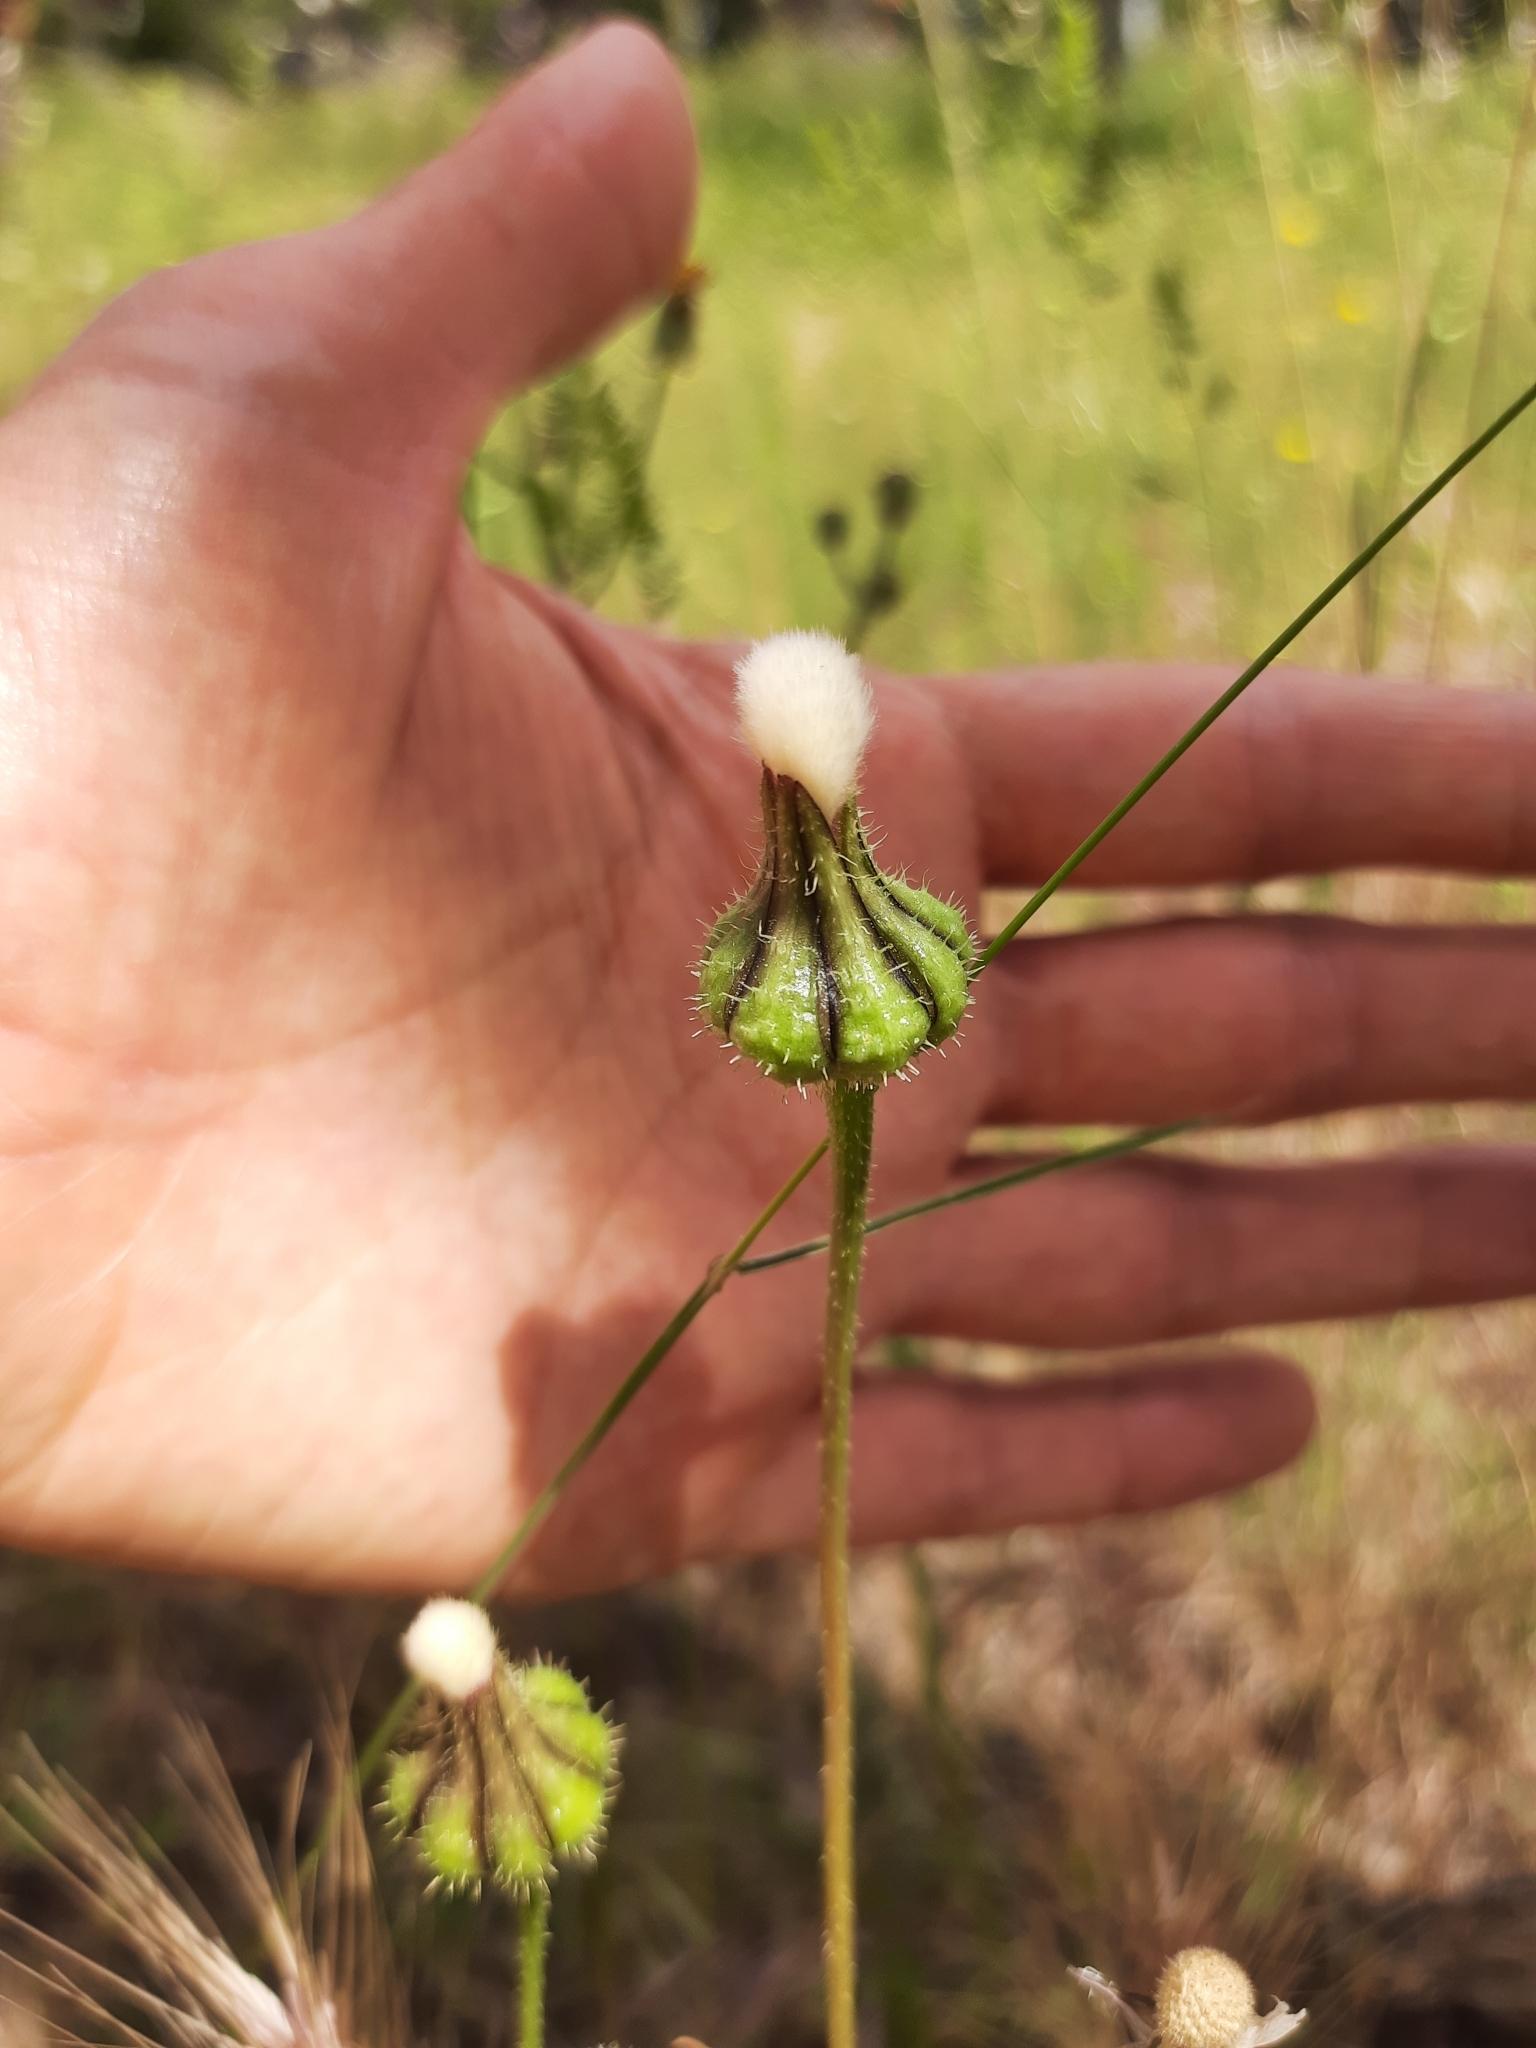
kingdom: Plantae
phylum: Tracheophyta
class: Magnoliopsida
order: Asterales
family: Asteraceae
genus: Urospermum
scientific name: Urospermum picroides
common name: False hawkbit
